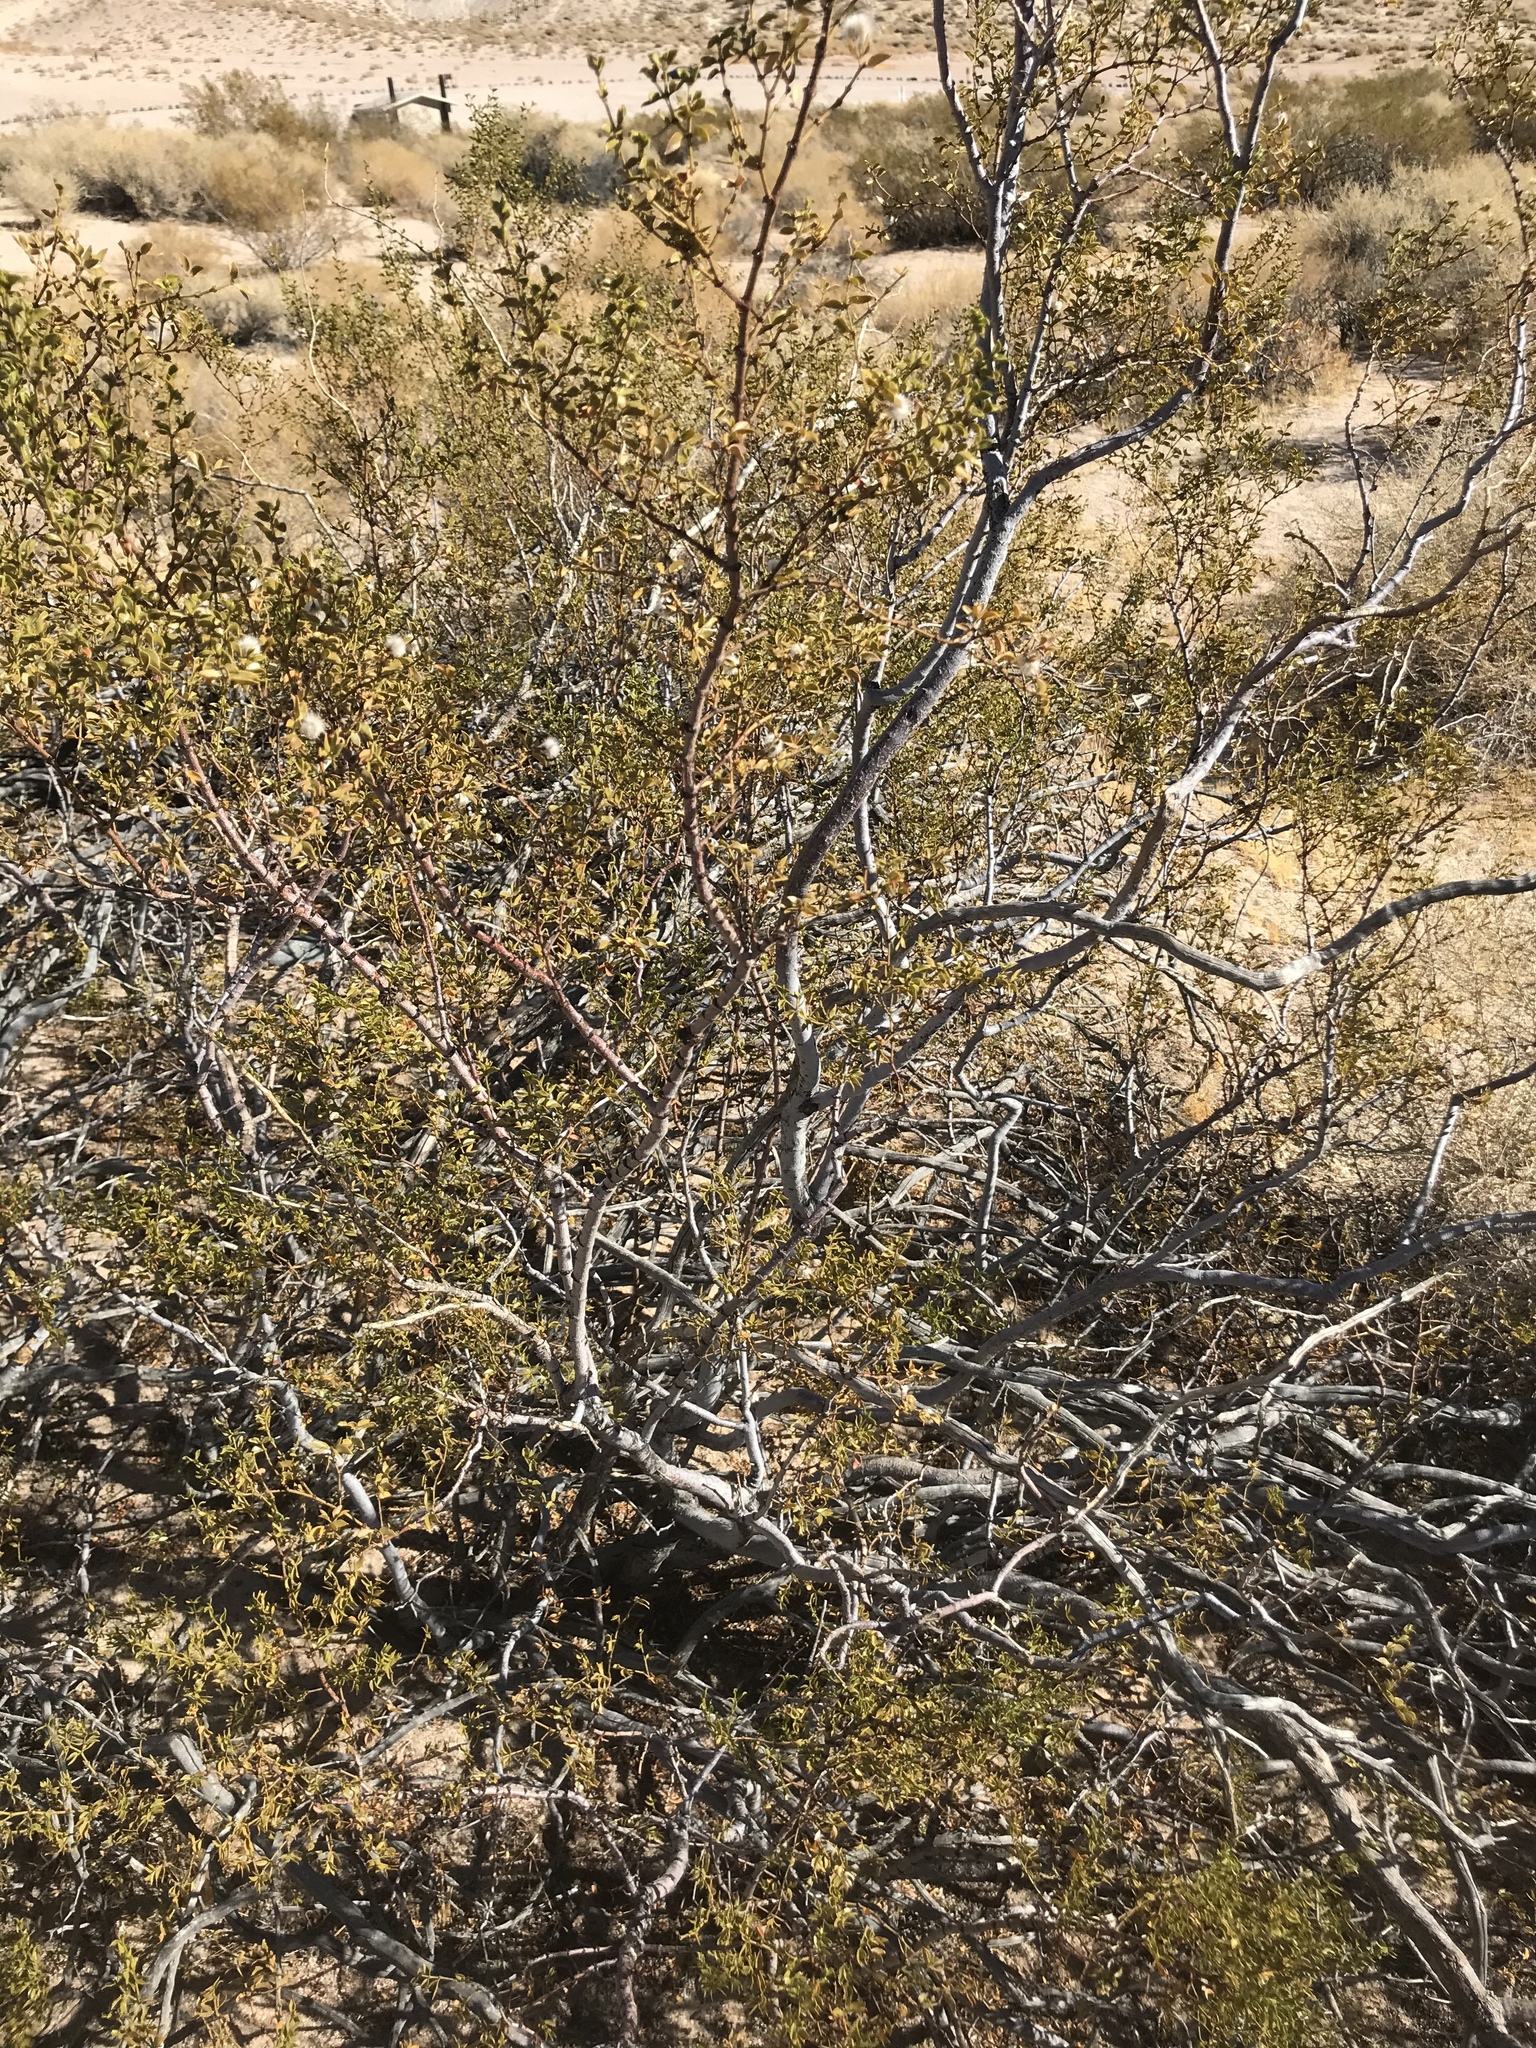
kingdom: Plantae
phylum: Tracheophyta
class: Magnoliopsida
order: Zygophyllales
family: Zygophyllaceae
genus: Larrea
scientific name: Larrea tridentata
